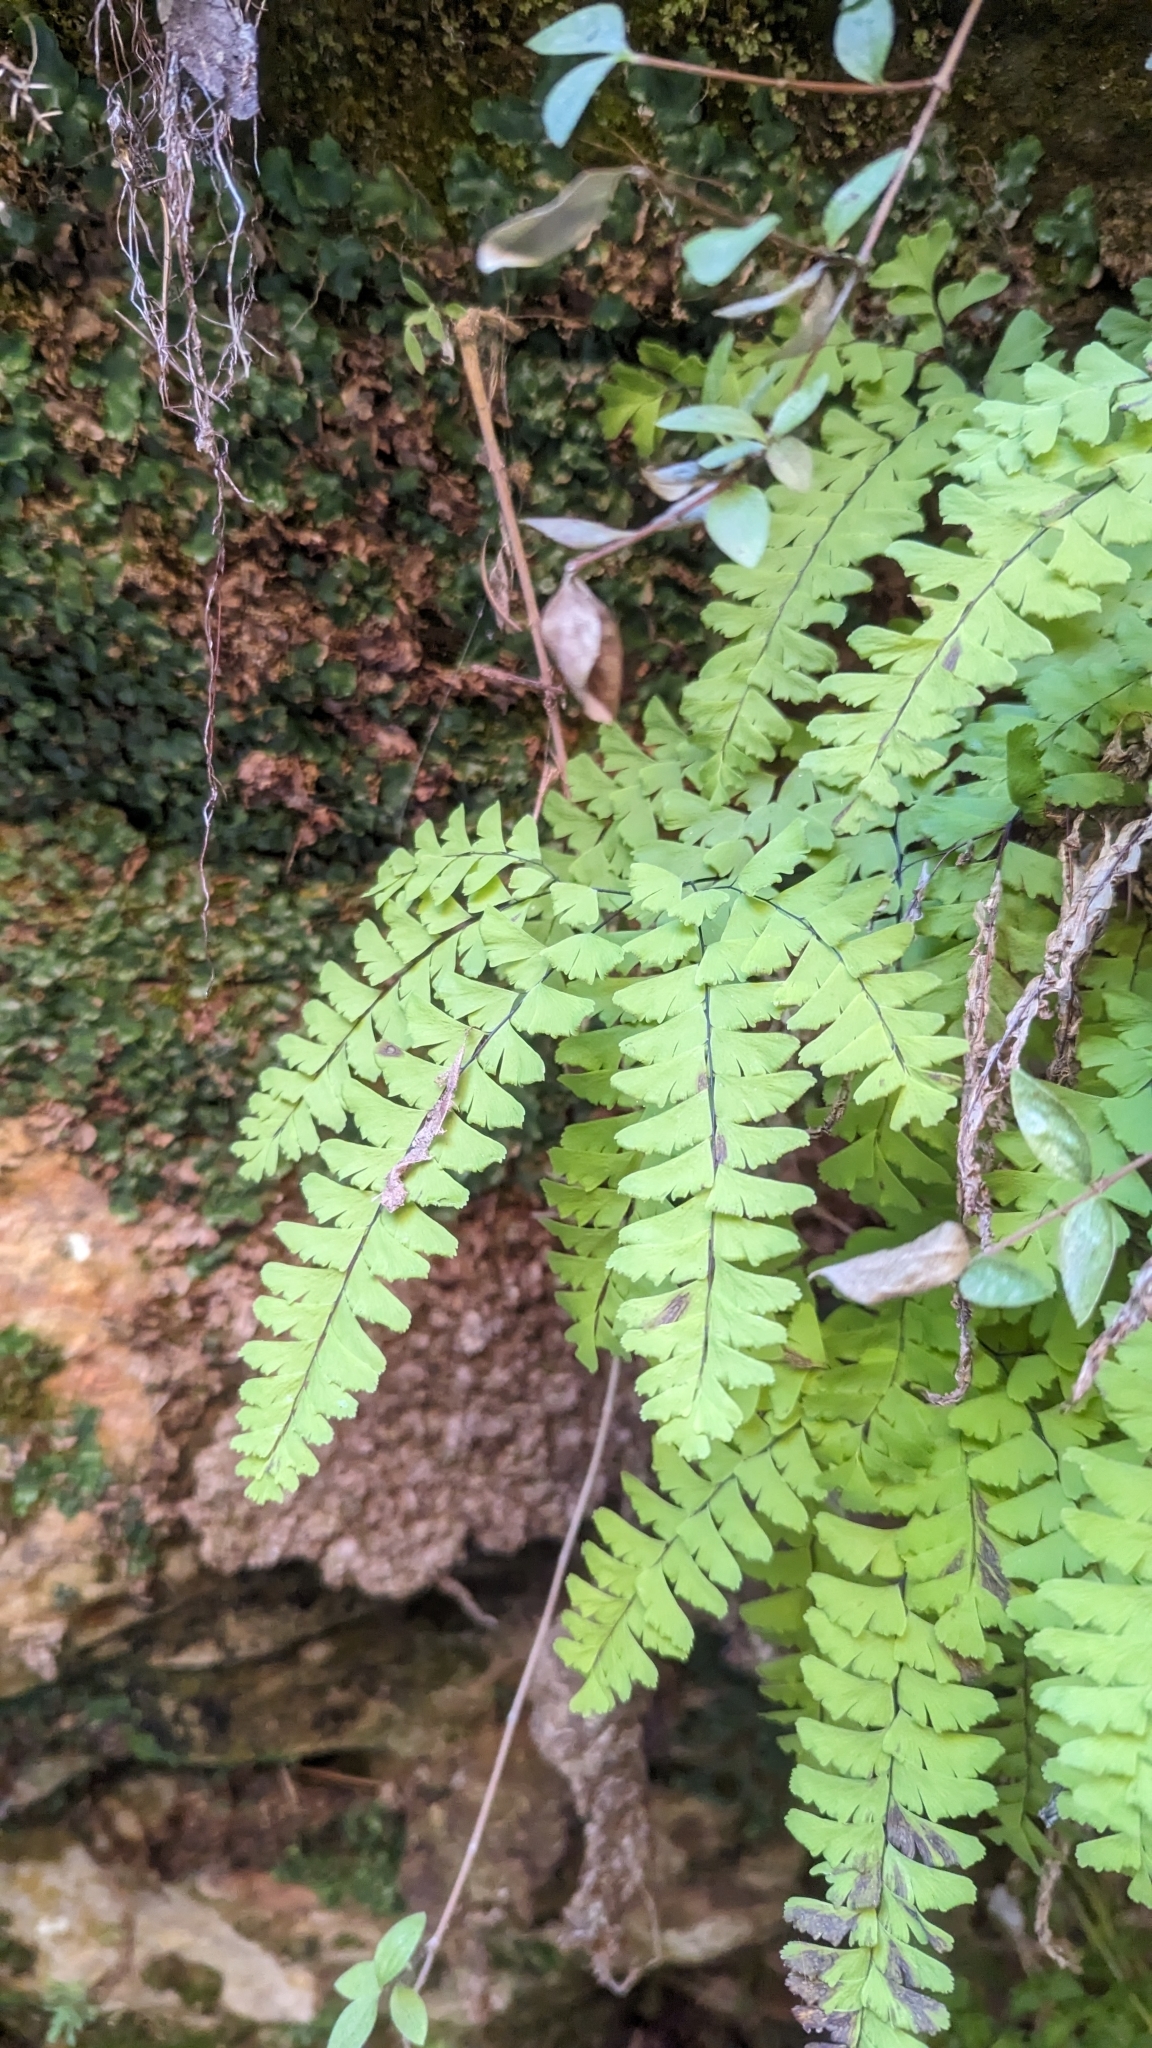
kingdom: Plantae
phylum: Tracheophyta
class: Polypodiopsida
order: Polypodiales
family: Pteridaceae
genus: Adiantum
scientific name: Adiantum aleuticum
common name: Aleutian maidenhair fern
